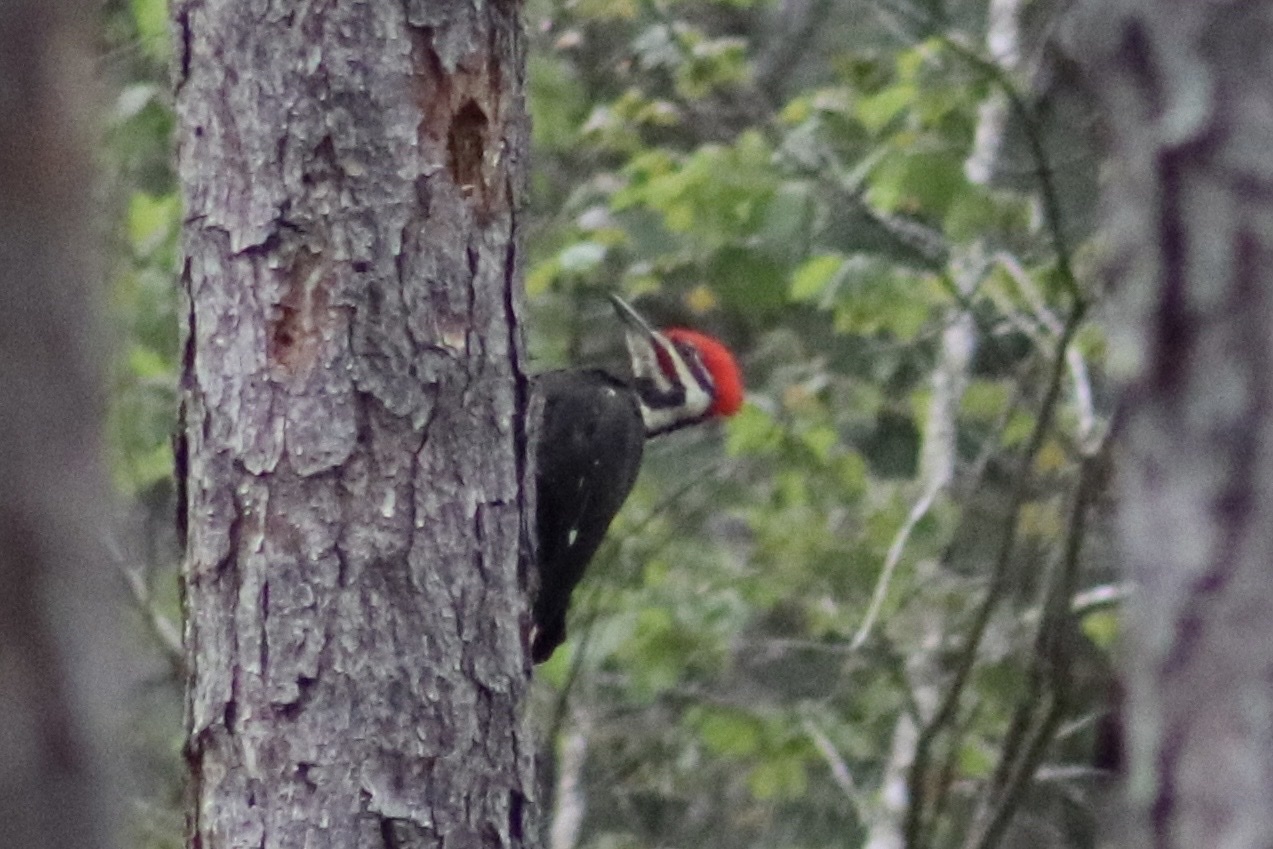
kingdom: Animalia
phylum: Chordata
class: Aves
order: Piciformes
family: Picidae
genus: Dryocopus
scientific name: Dryocopus pileatus
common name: Pileated woodpecker
